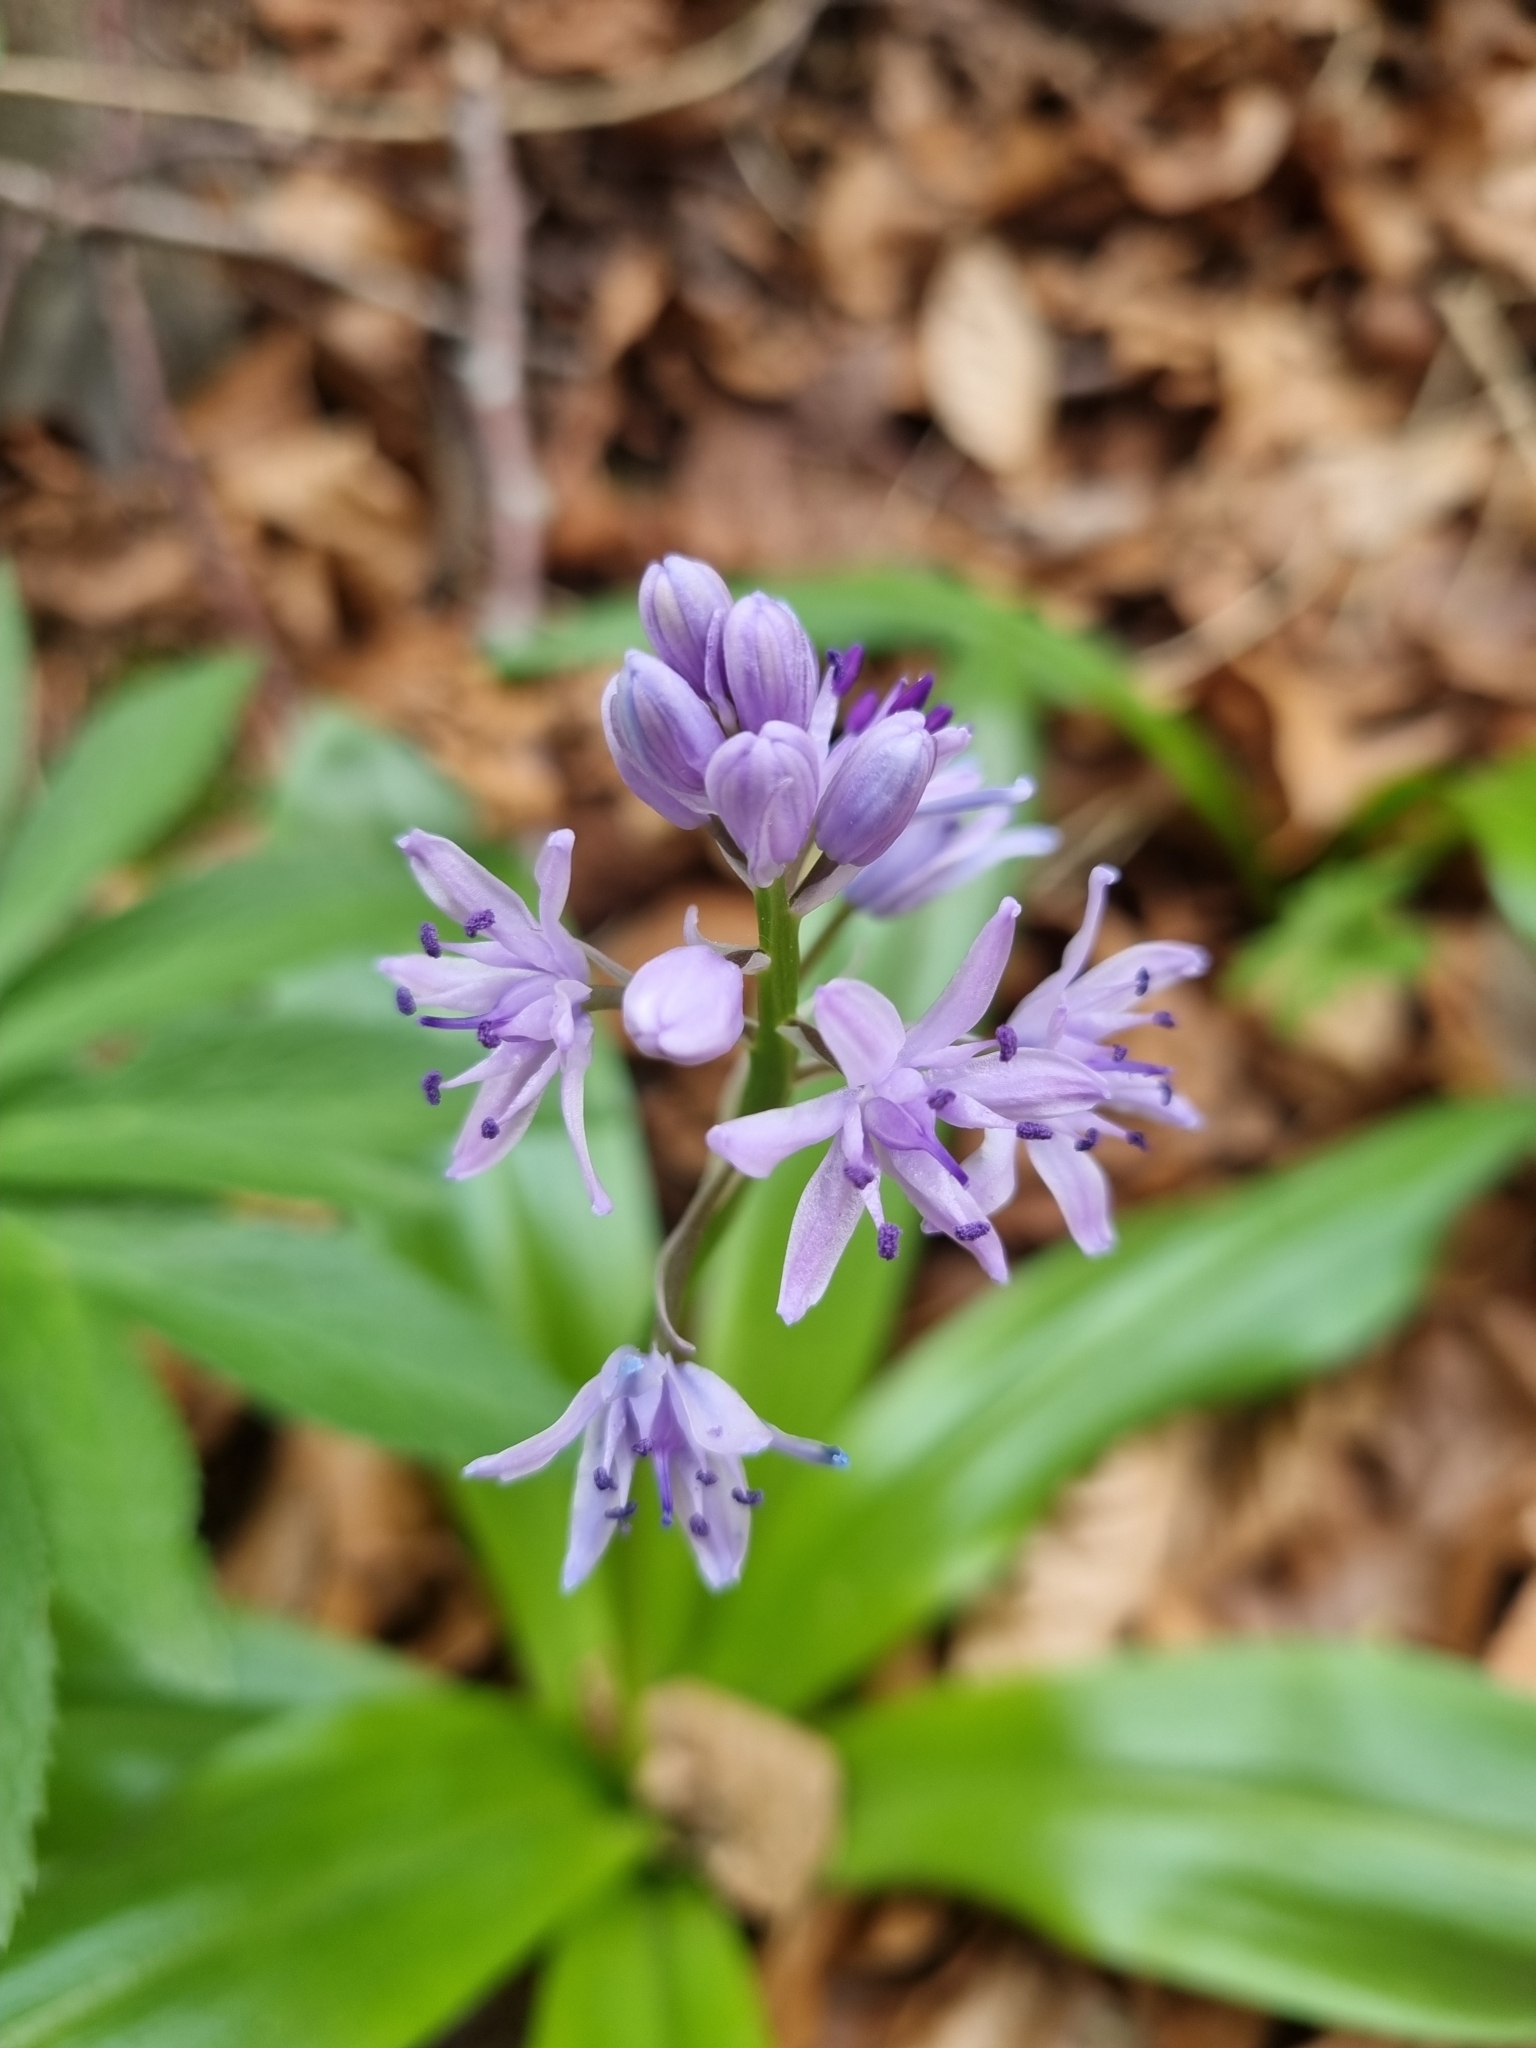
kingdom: Plantae
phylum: Tracheophyta
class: Liliopsida
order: Asparagales
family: Asparagaceae
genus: Scilla
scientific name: Scilla lilio-hyacinthus
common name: Pyrenean squill
